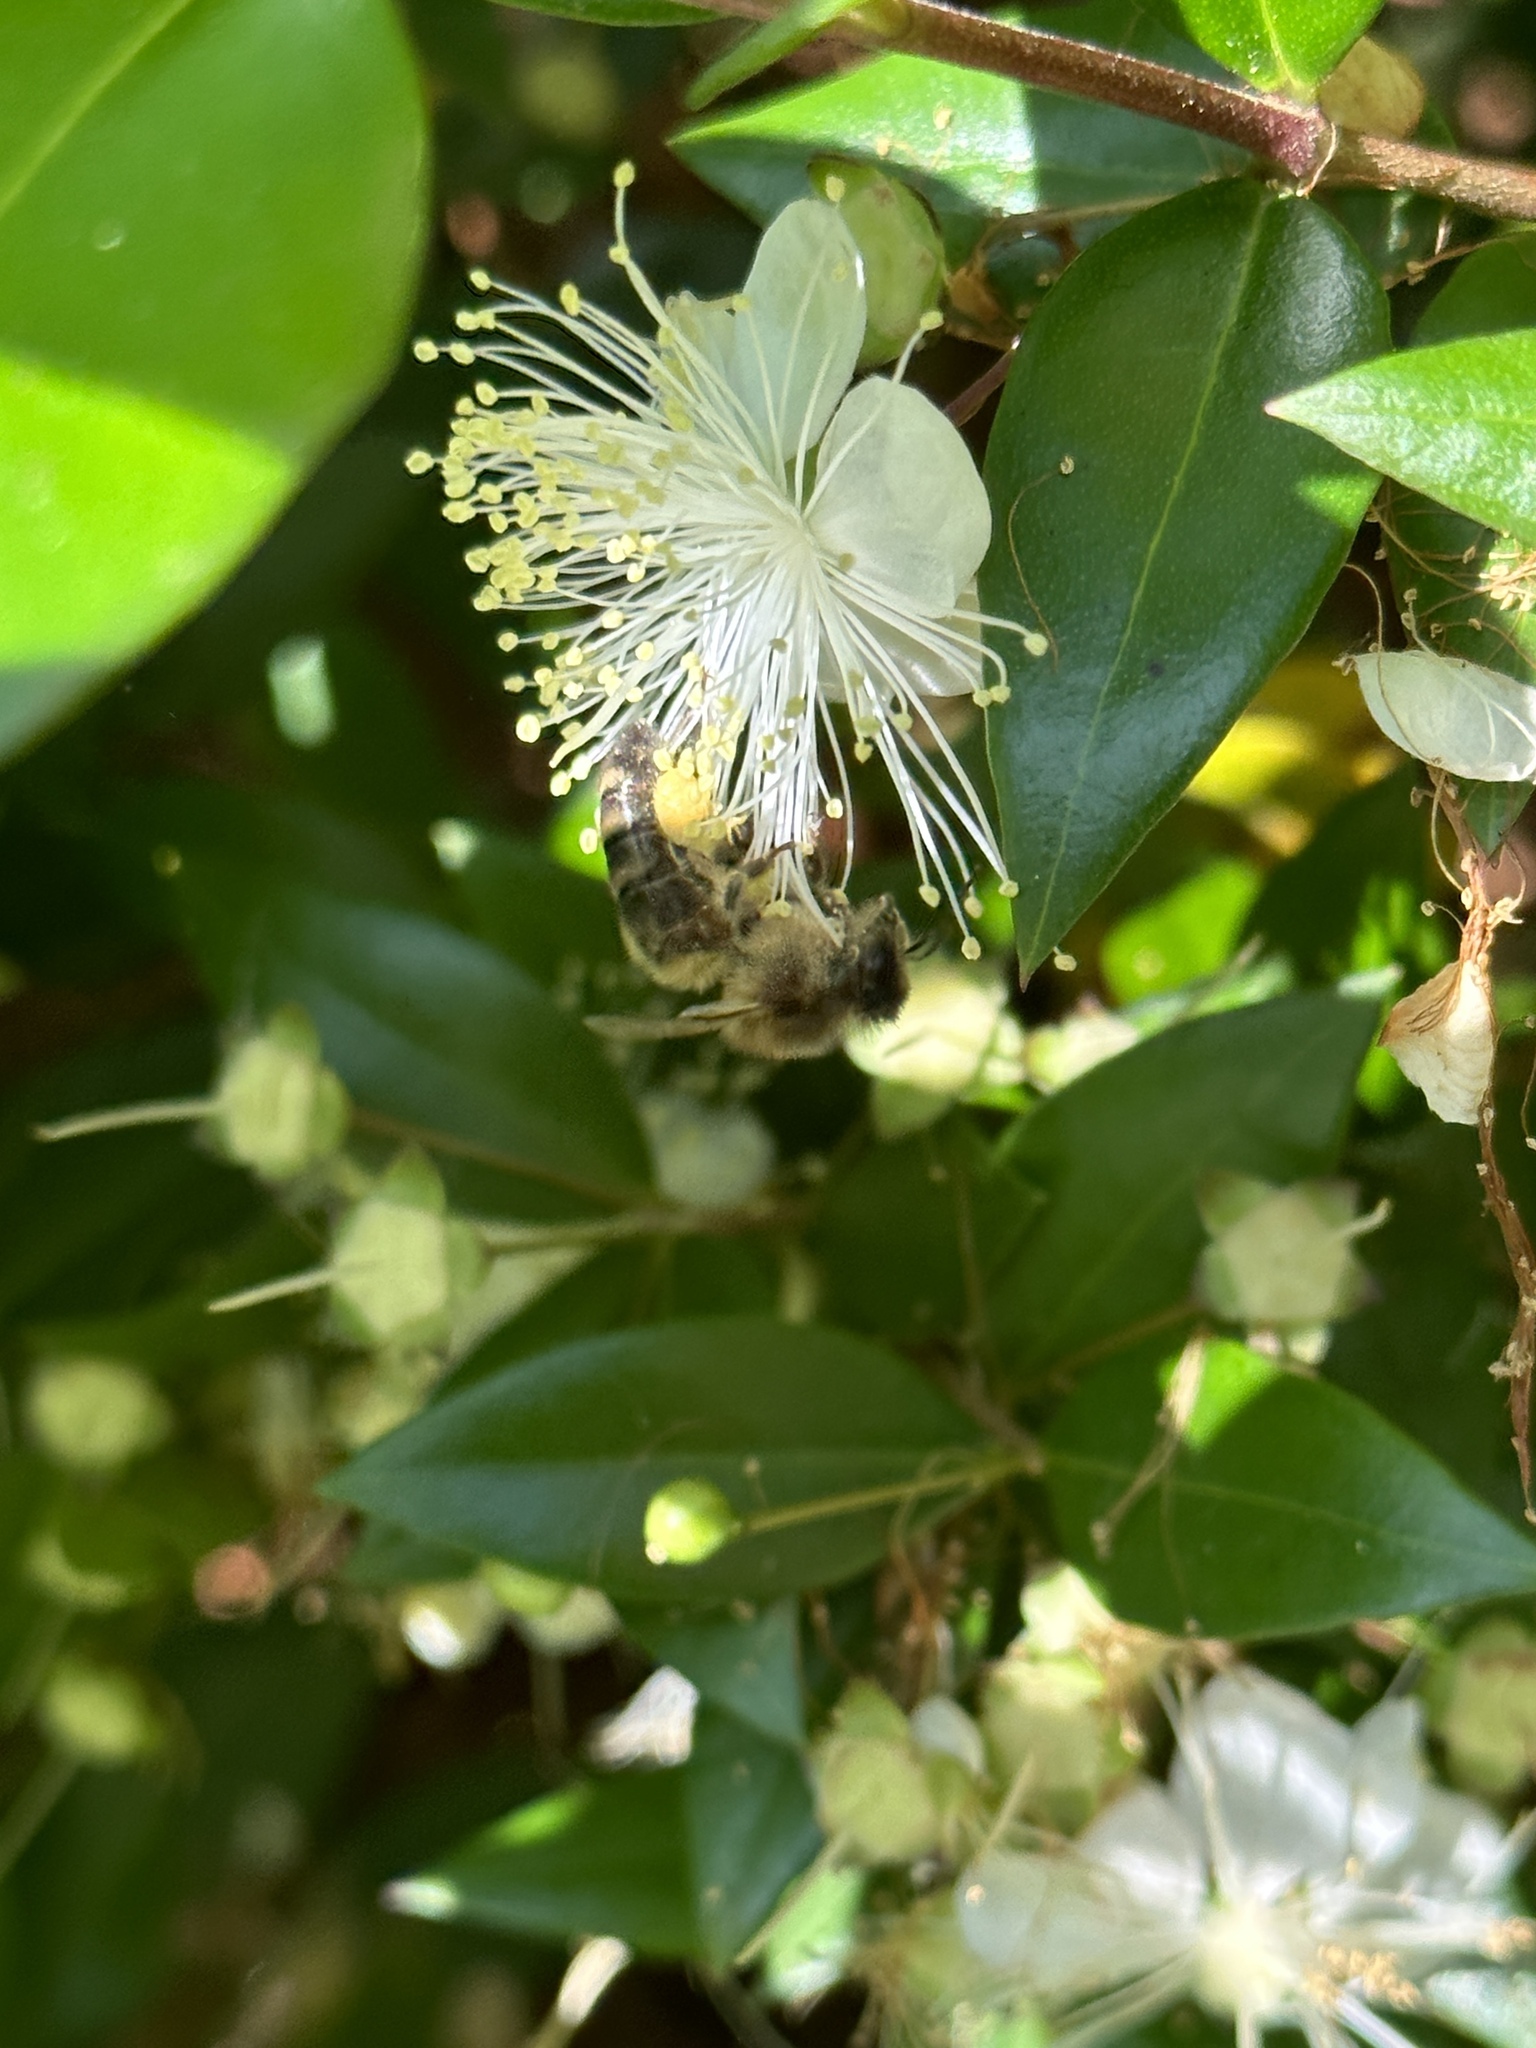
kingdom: Animalia
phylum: Arthropoda
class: Insecta
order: Hymenoptera
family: Apidae
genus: Apis
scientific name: Apis mellifera
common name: Honey bee
